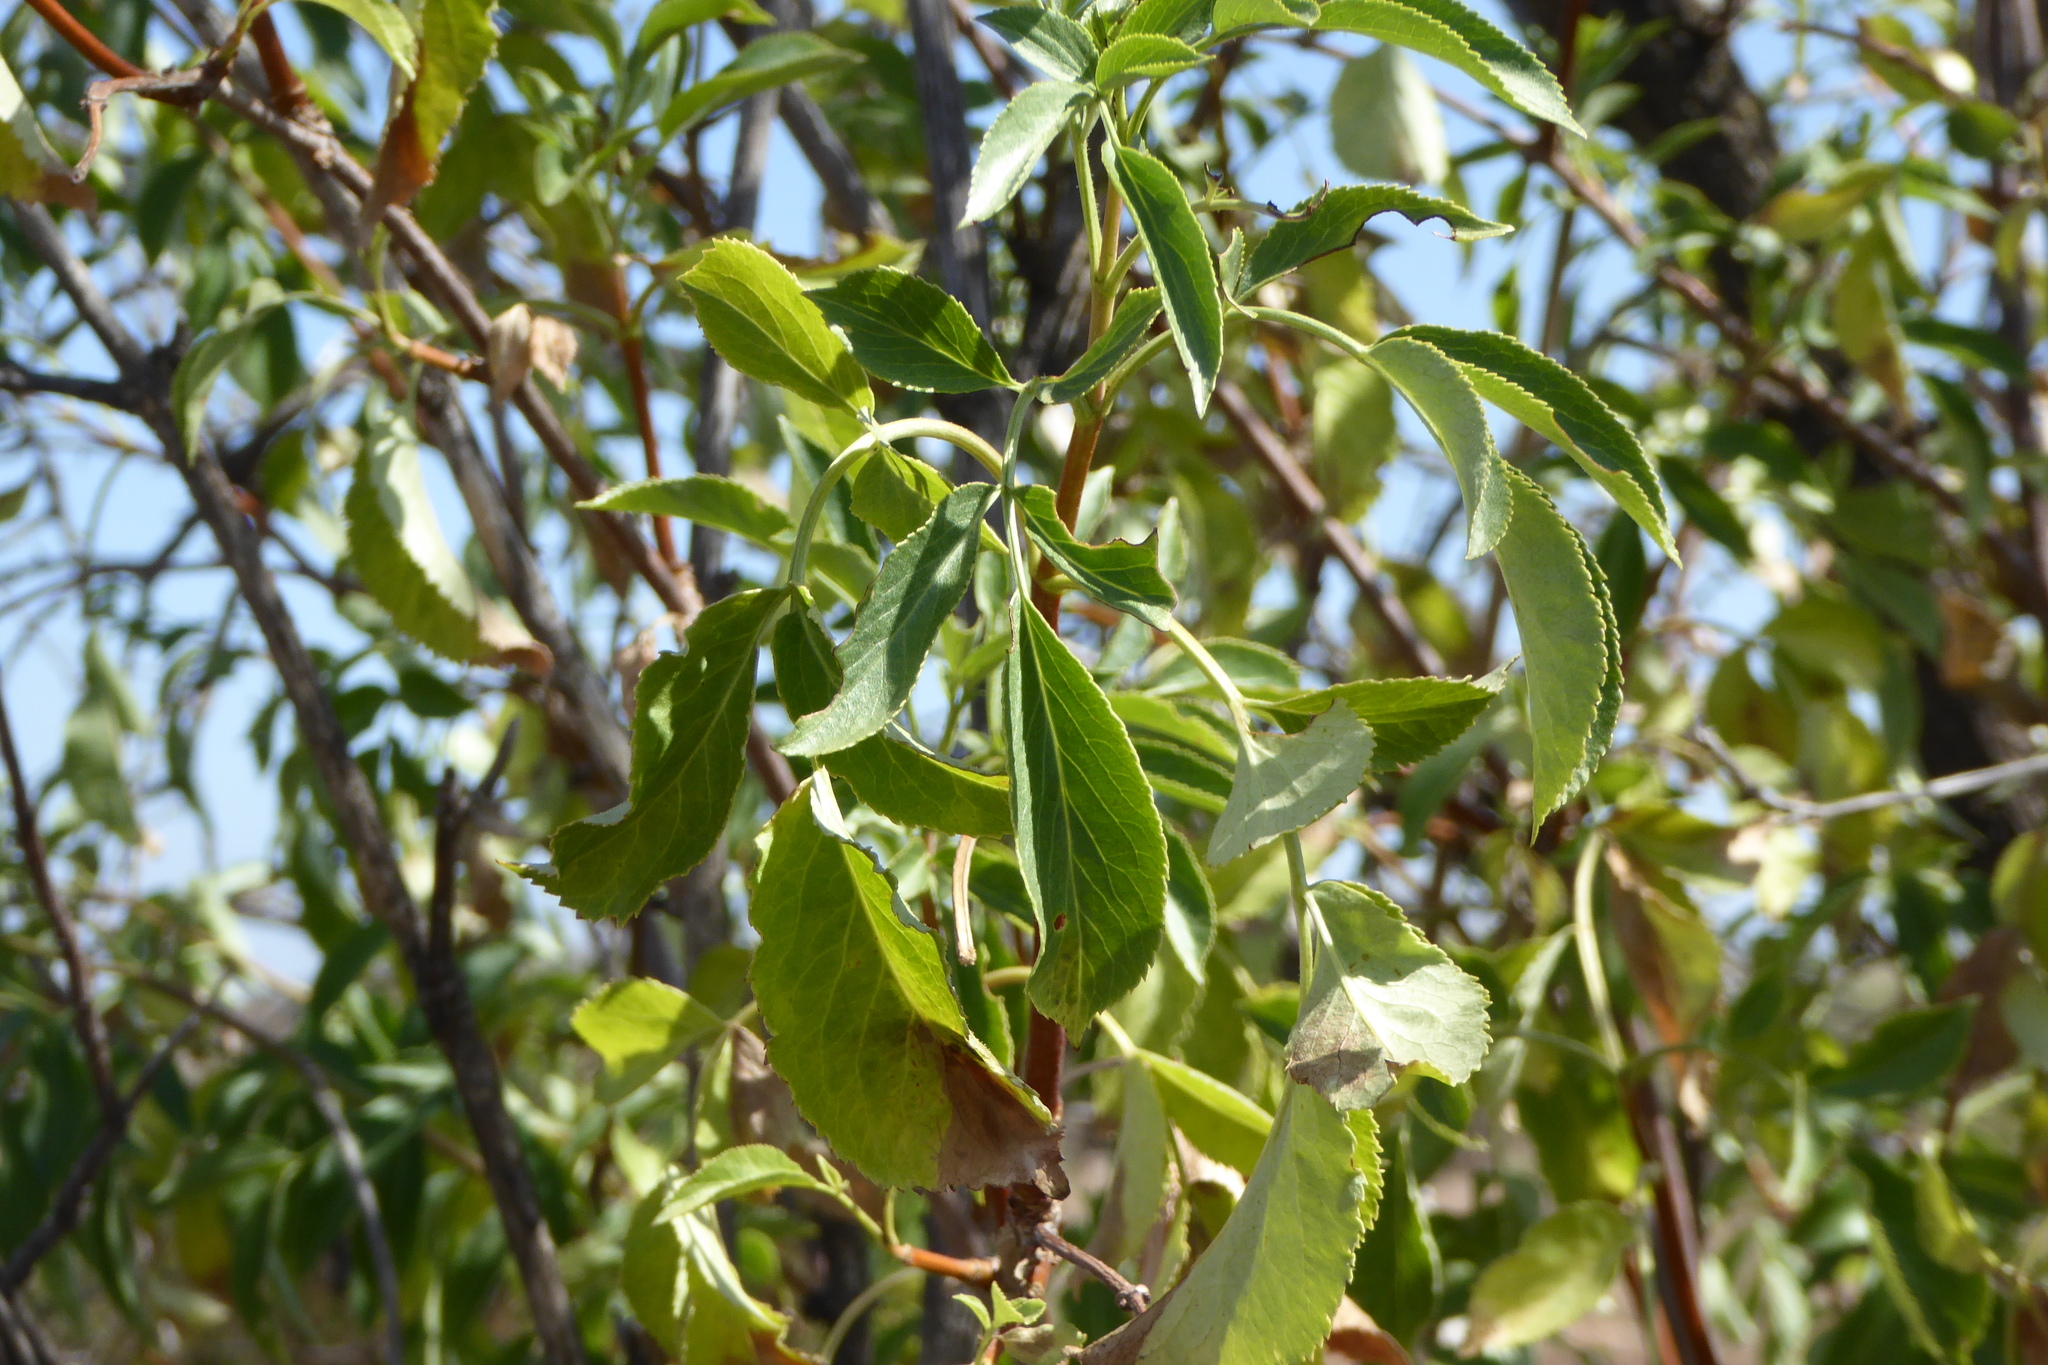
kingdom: Plantae
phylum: Tracheophyta
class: Magnoliopsida
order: Dipsacales
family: Viburnaceae
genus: Sambucus
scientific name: Sambucus cerulea
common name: Blue elder
